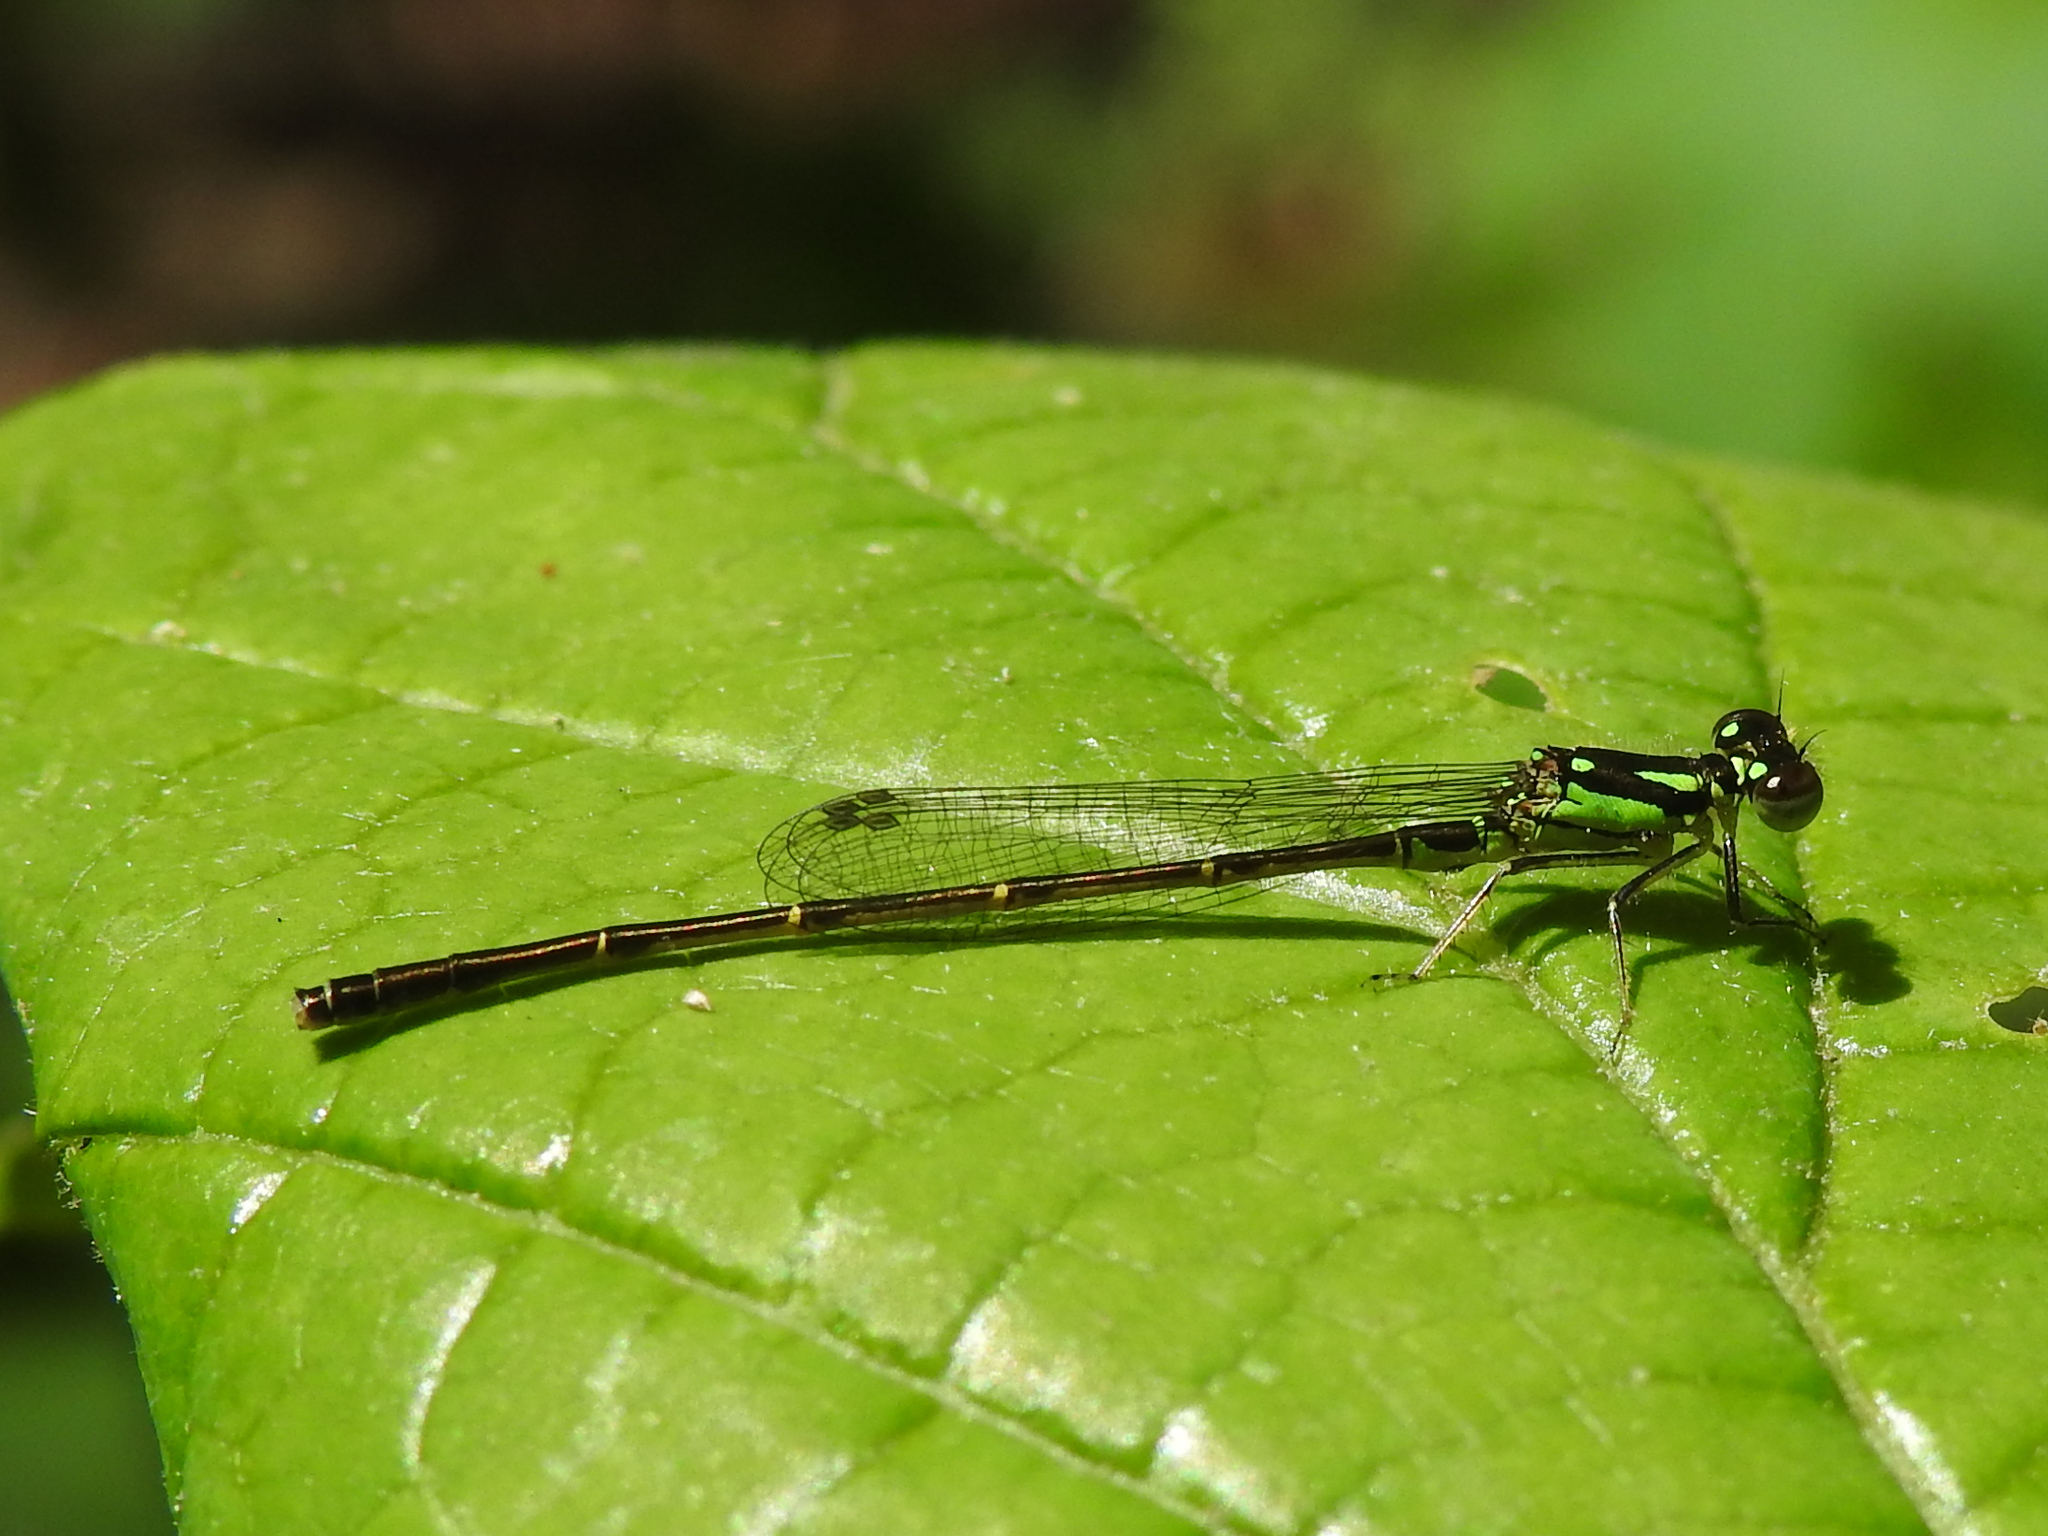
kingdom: Animalia
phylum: Arthropoda
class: Insecta
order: Odonata
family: Coenagrionidae
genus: Ischnura
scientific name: Ischnura posita
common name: Fragile forktail
